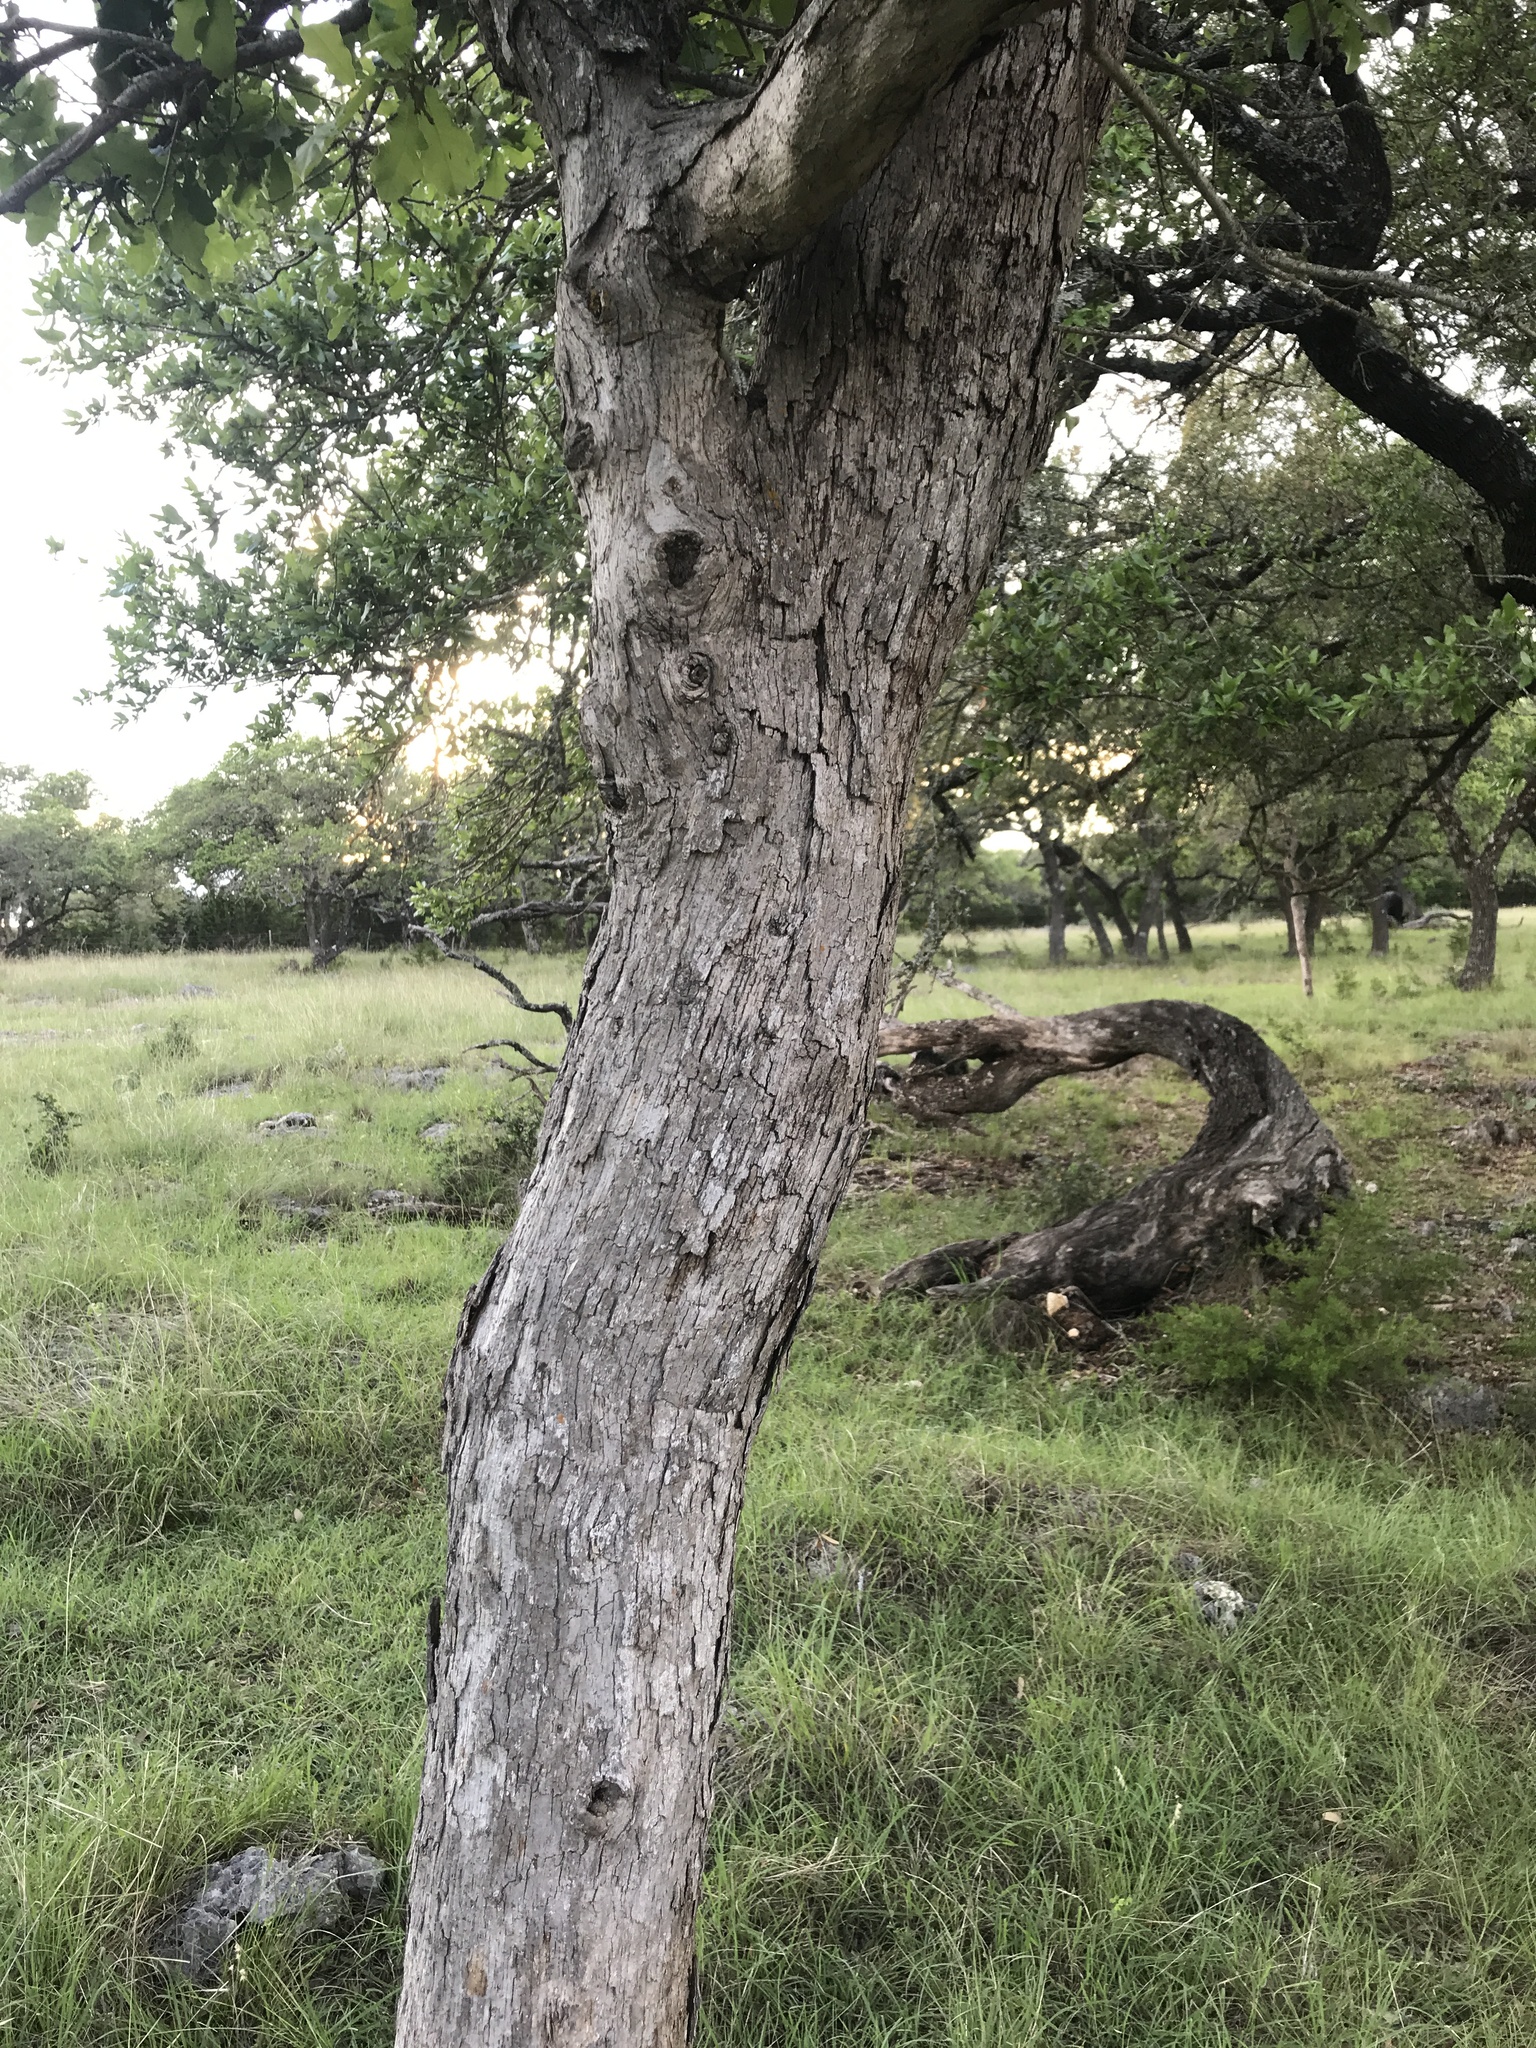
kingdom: Plantae
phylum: Tracheophyta
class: Magnoliopsida
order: Fagales
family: Fagaceae
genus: Quercus
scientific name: Quercus sinuata
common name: Durand oak
